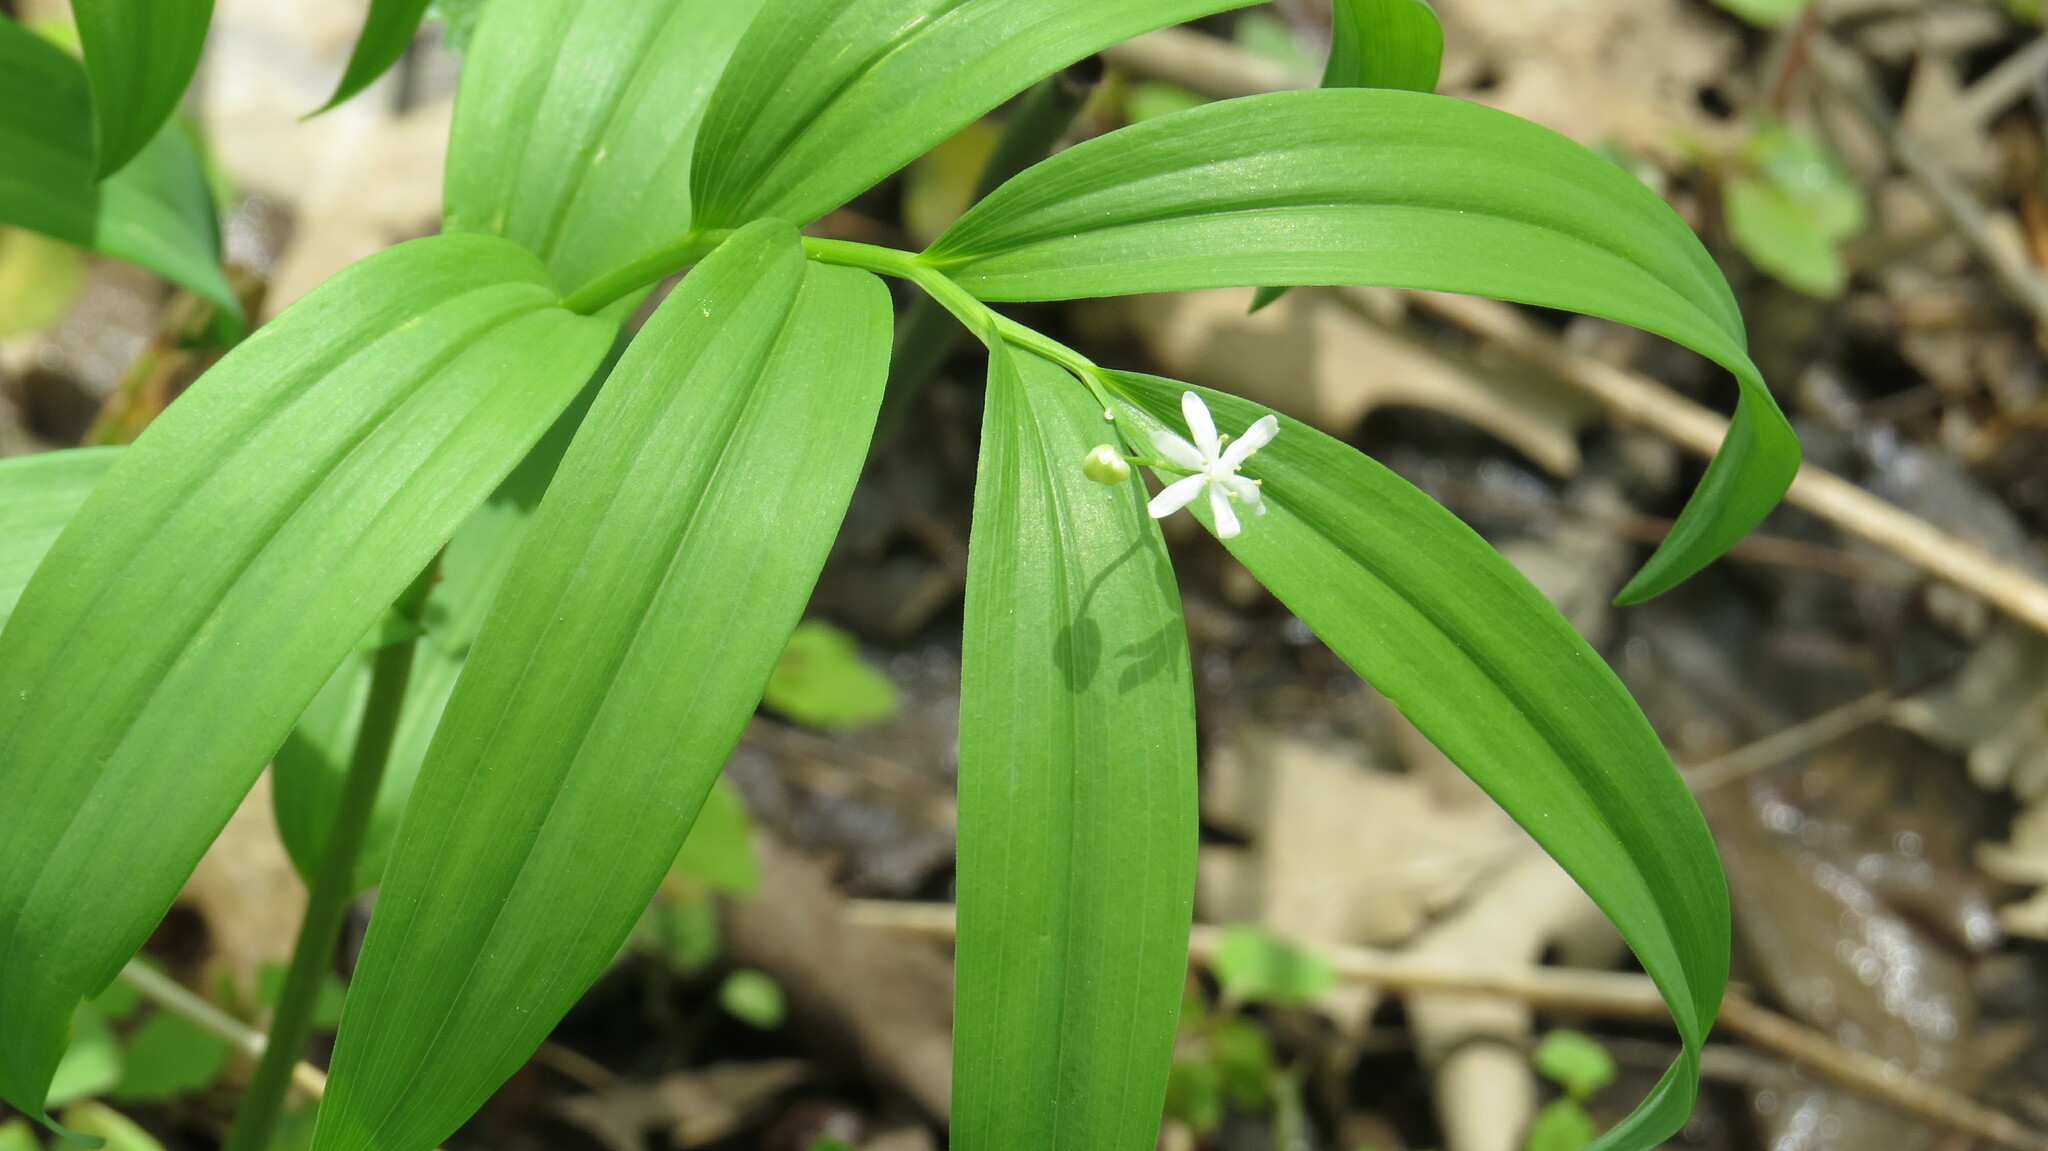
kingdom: Plantae
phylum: Tracheophyta
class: Liliopsida
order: Asparagales
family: Asparagaceae
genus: Maianthemum
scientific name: Maianthemum stellatum
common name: Little false solomon's seal
